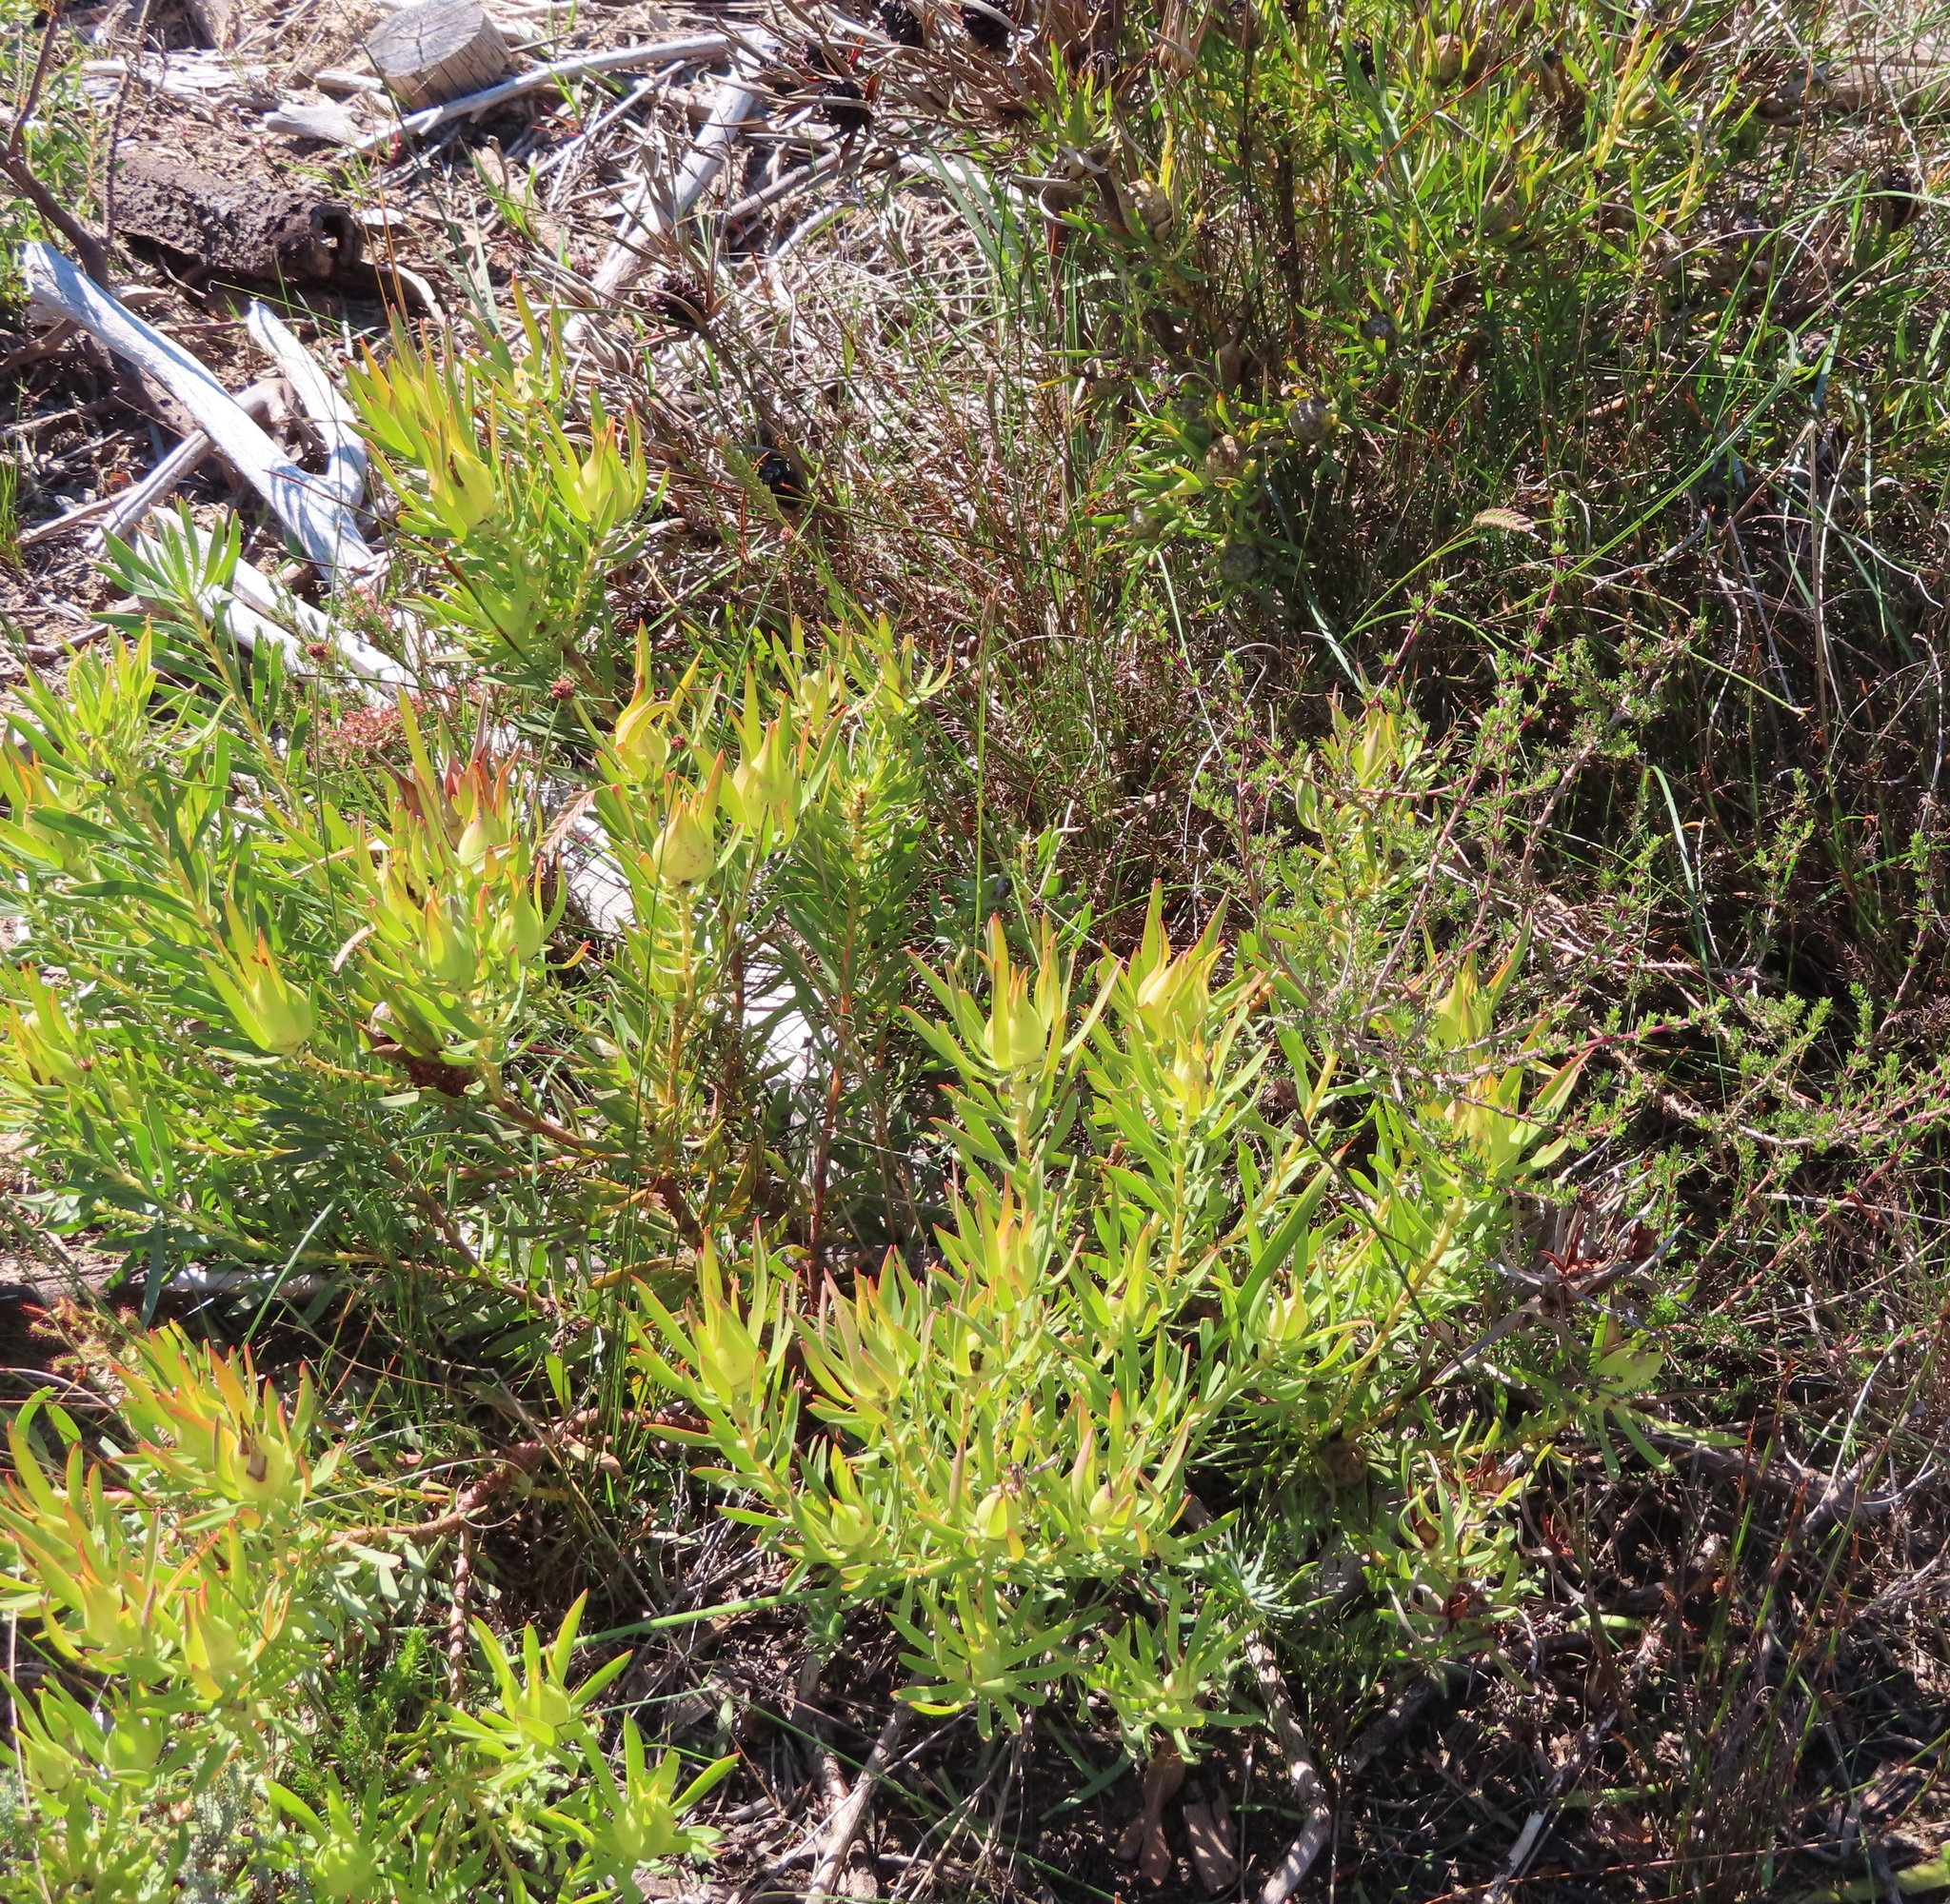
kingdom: Plantae
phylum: Tracheophyta
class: Magnoliopsida
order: Proteales
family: Proteaceae
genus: Leucadendron
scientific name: Leucadendron salignum
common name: Common sunshine conebush
